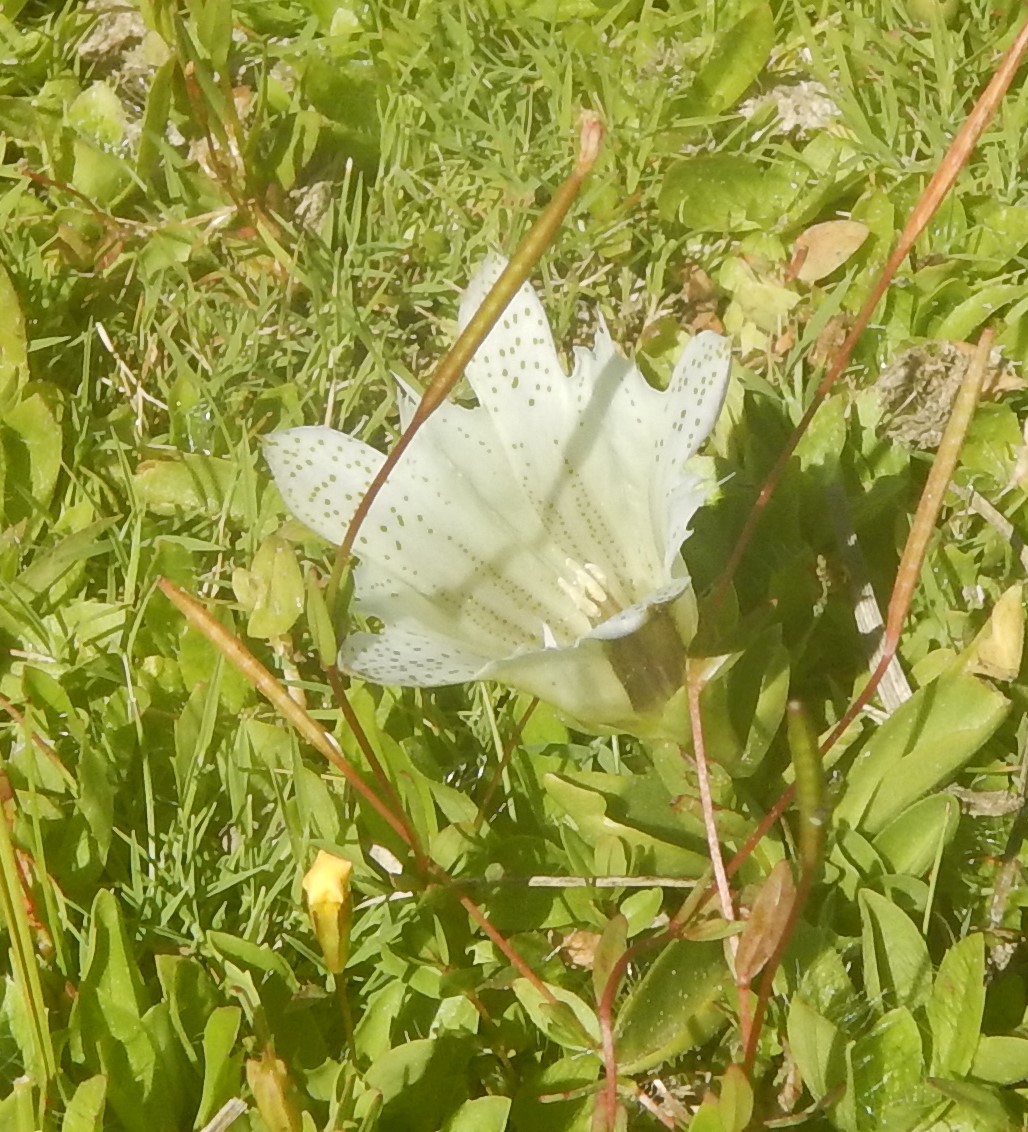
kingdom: Plantae
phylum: Tracheophyta
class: Magnoliopsida
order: Gentianales
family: Gentianaceae
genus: Gentiana
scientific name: Gentiana newberryi
